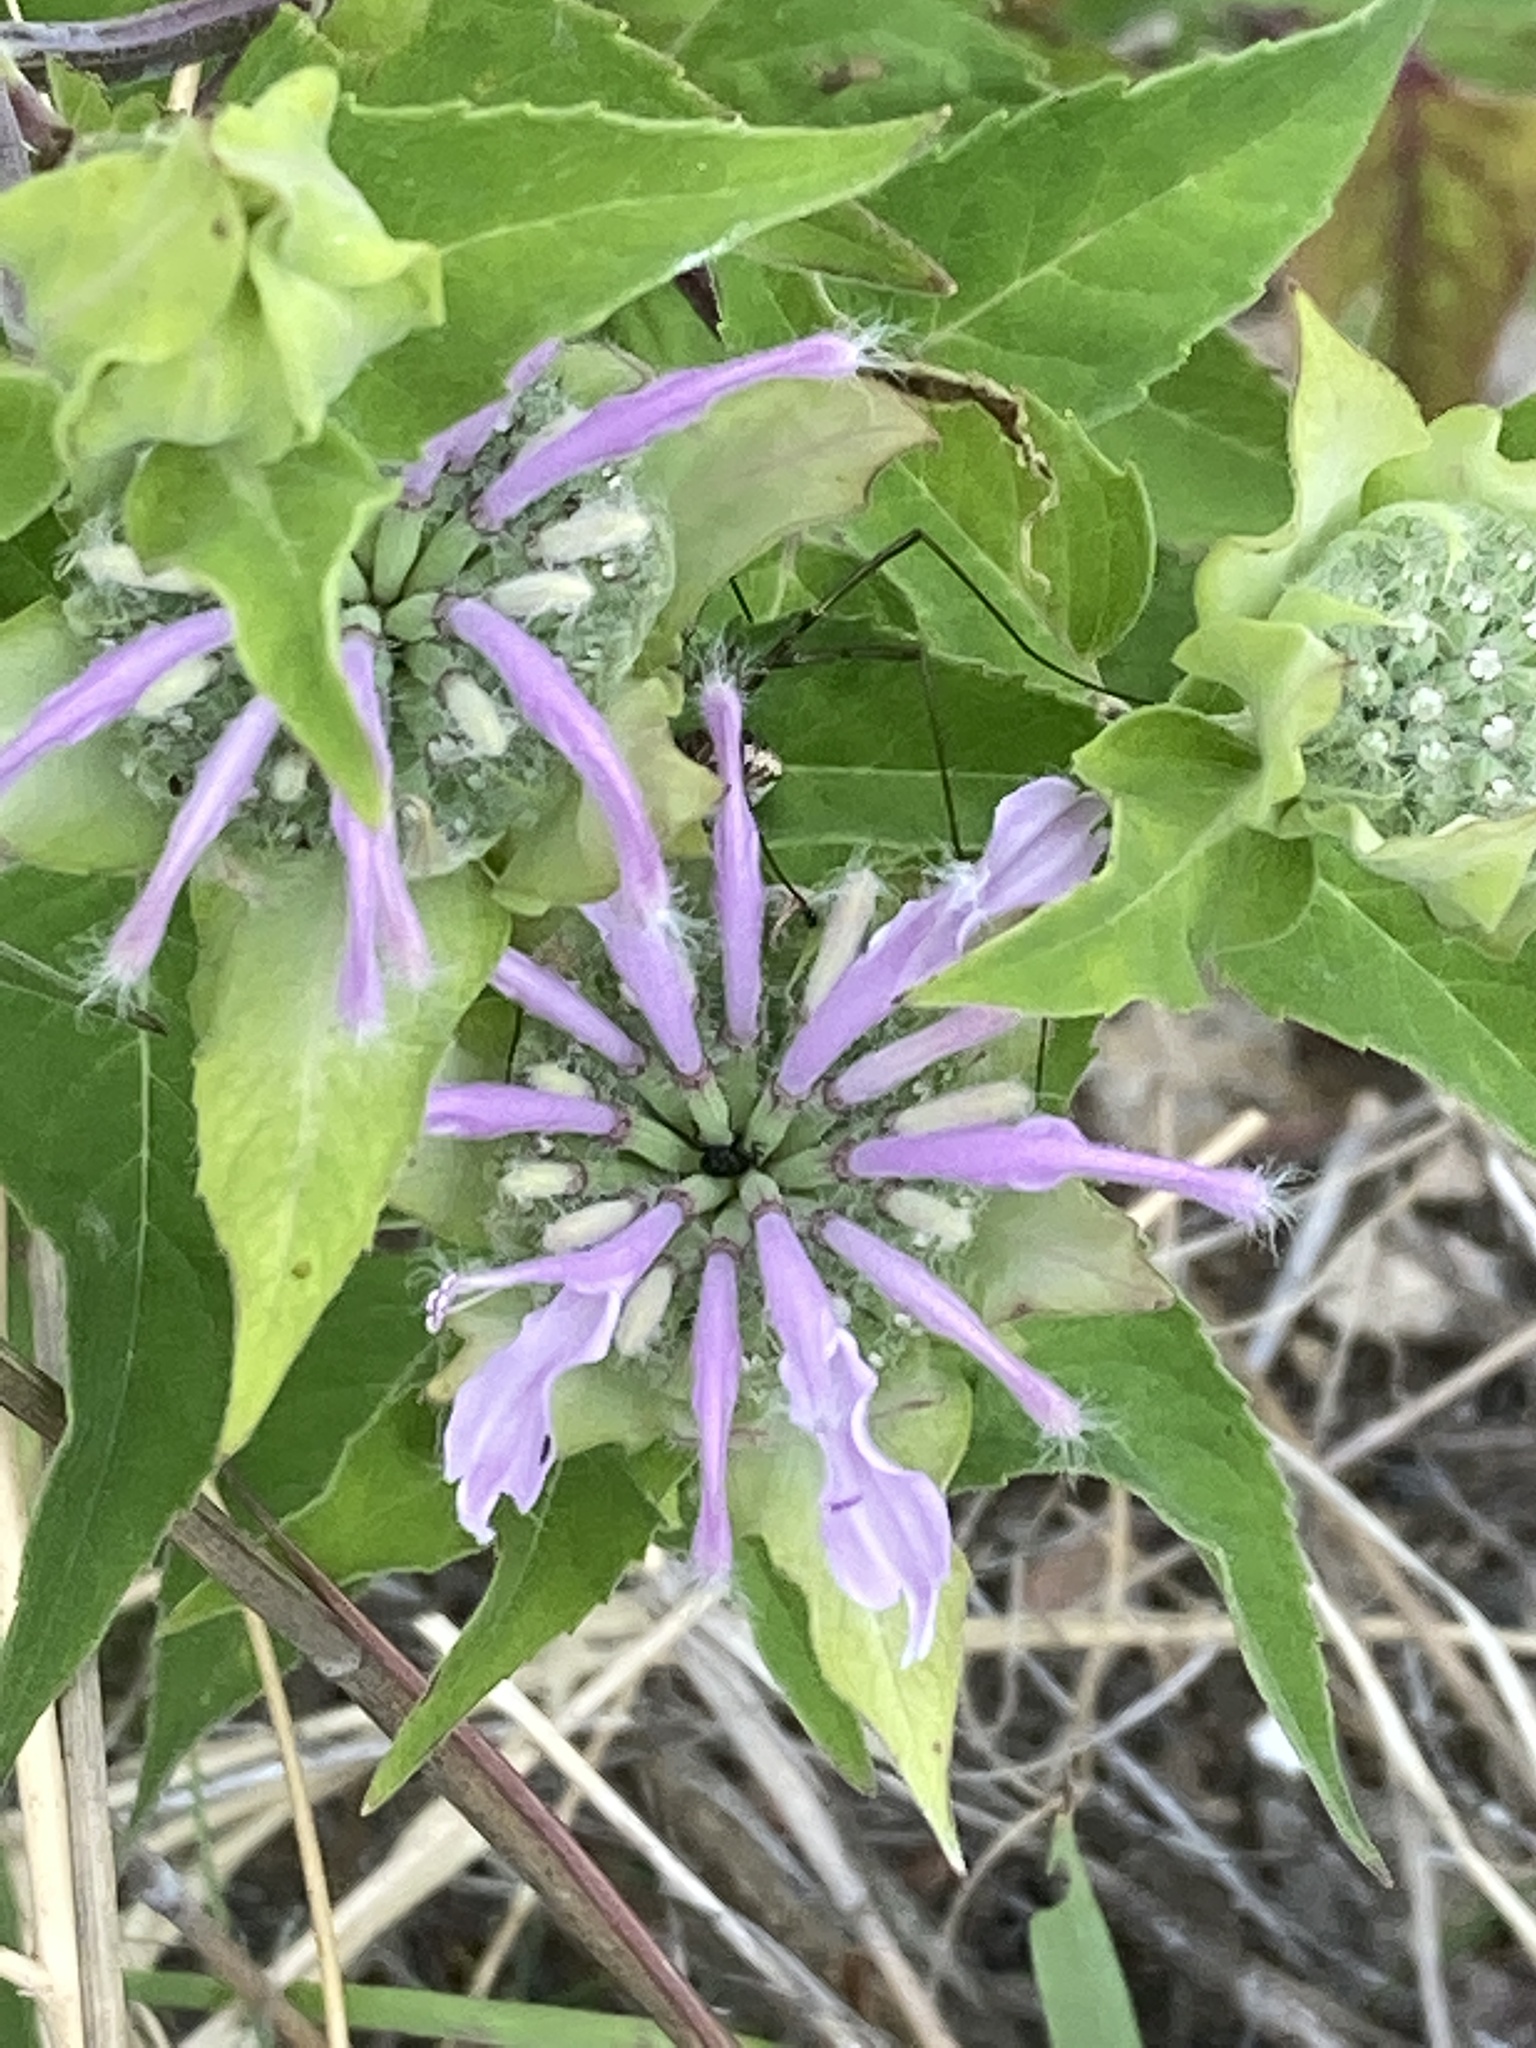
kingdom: Plantae
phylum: Tracheophyta
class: Magnoliopsida
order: Lamiales
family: Lamiaceae
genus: Monarda
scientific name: Monarda fistulosa
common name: Purple beebalm
